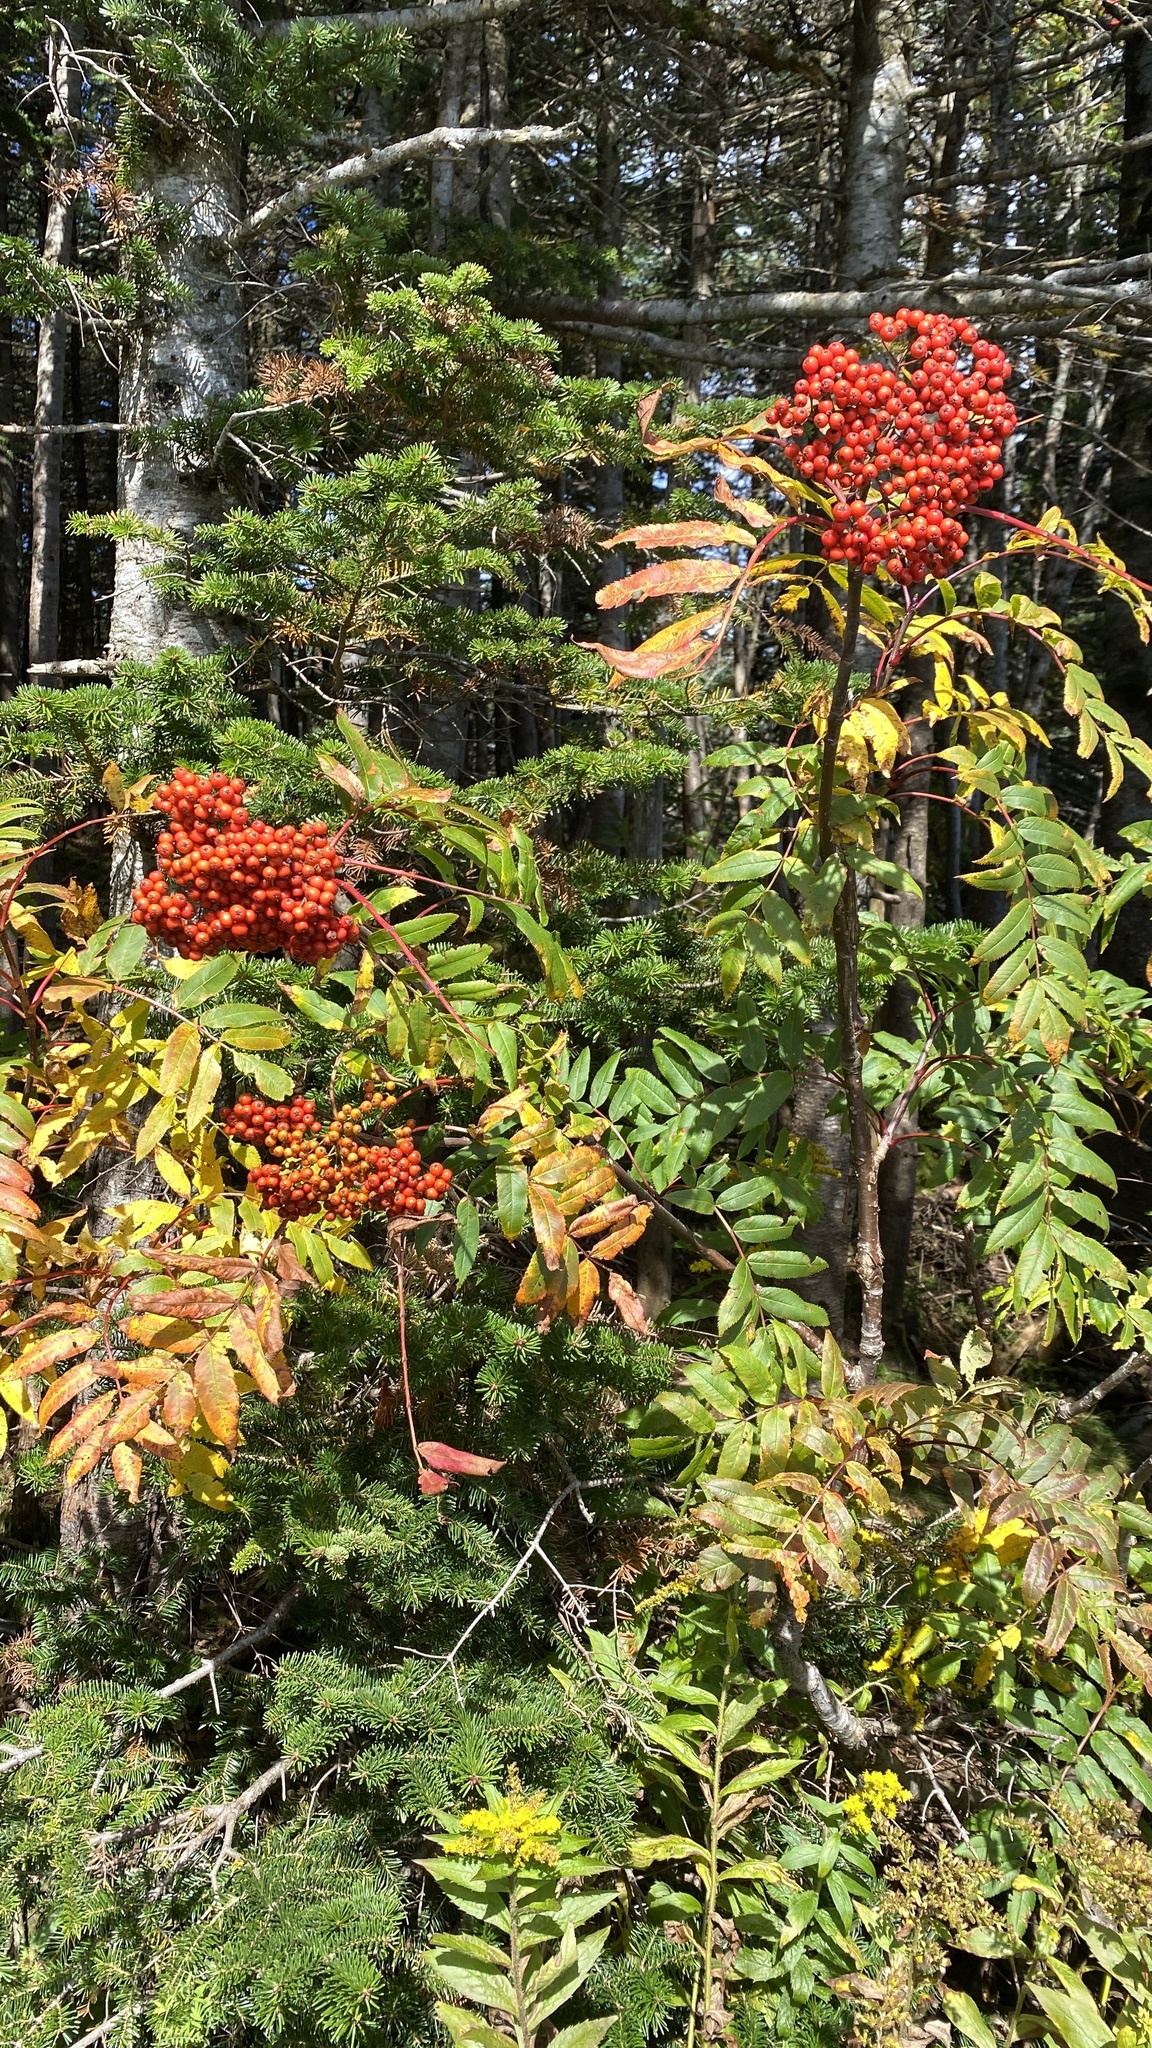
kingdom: Plantae
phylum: Tracheophyta
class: Magnoliopsida
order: Rosales
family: Rosaceae
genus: Sorbus
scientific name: Sorbus americana
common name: American mountain-ash
